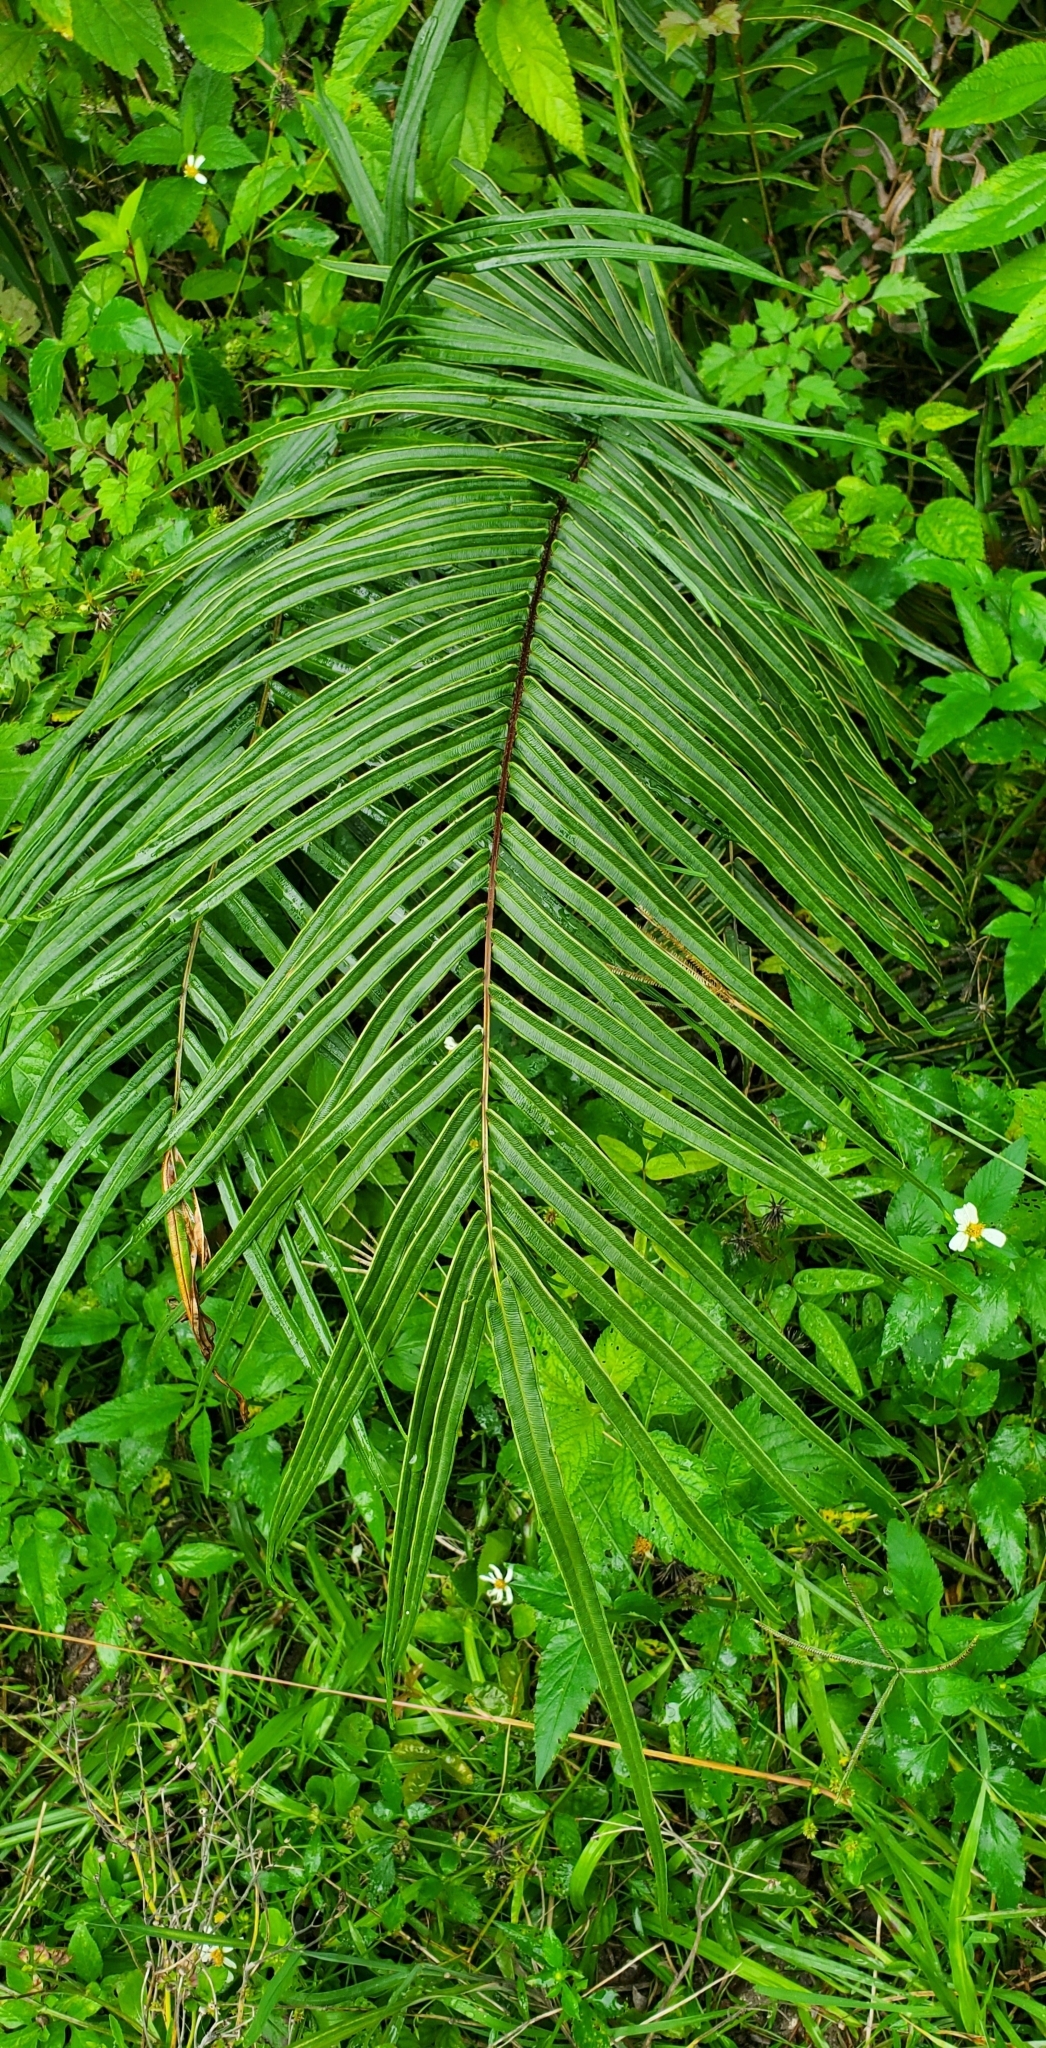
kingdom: Plantae
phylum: Tracheophyta
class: Polypodiopsida
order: Polypodiales
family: Pteridaceae
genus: Pteris
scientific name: Pteris vittata
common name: Ladder brake
